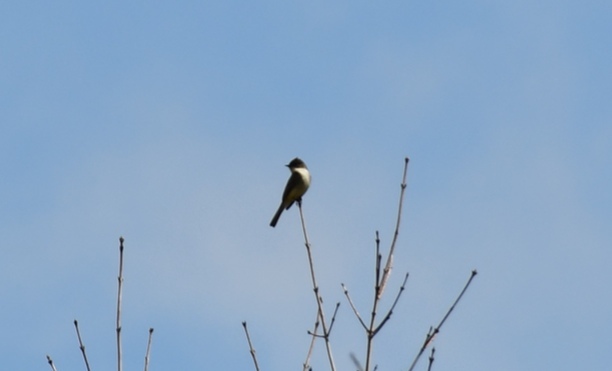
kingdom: Animalia
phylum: Chordata
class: Aves
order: Passeriformes
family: Tyrannidae
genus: Sayornis
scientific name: Sayornis phoebe
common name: Eastern phoebe
